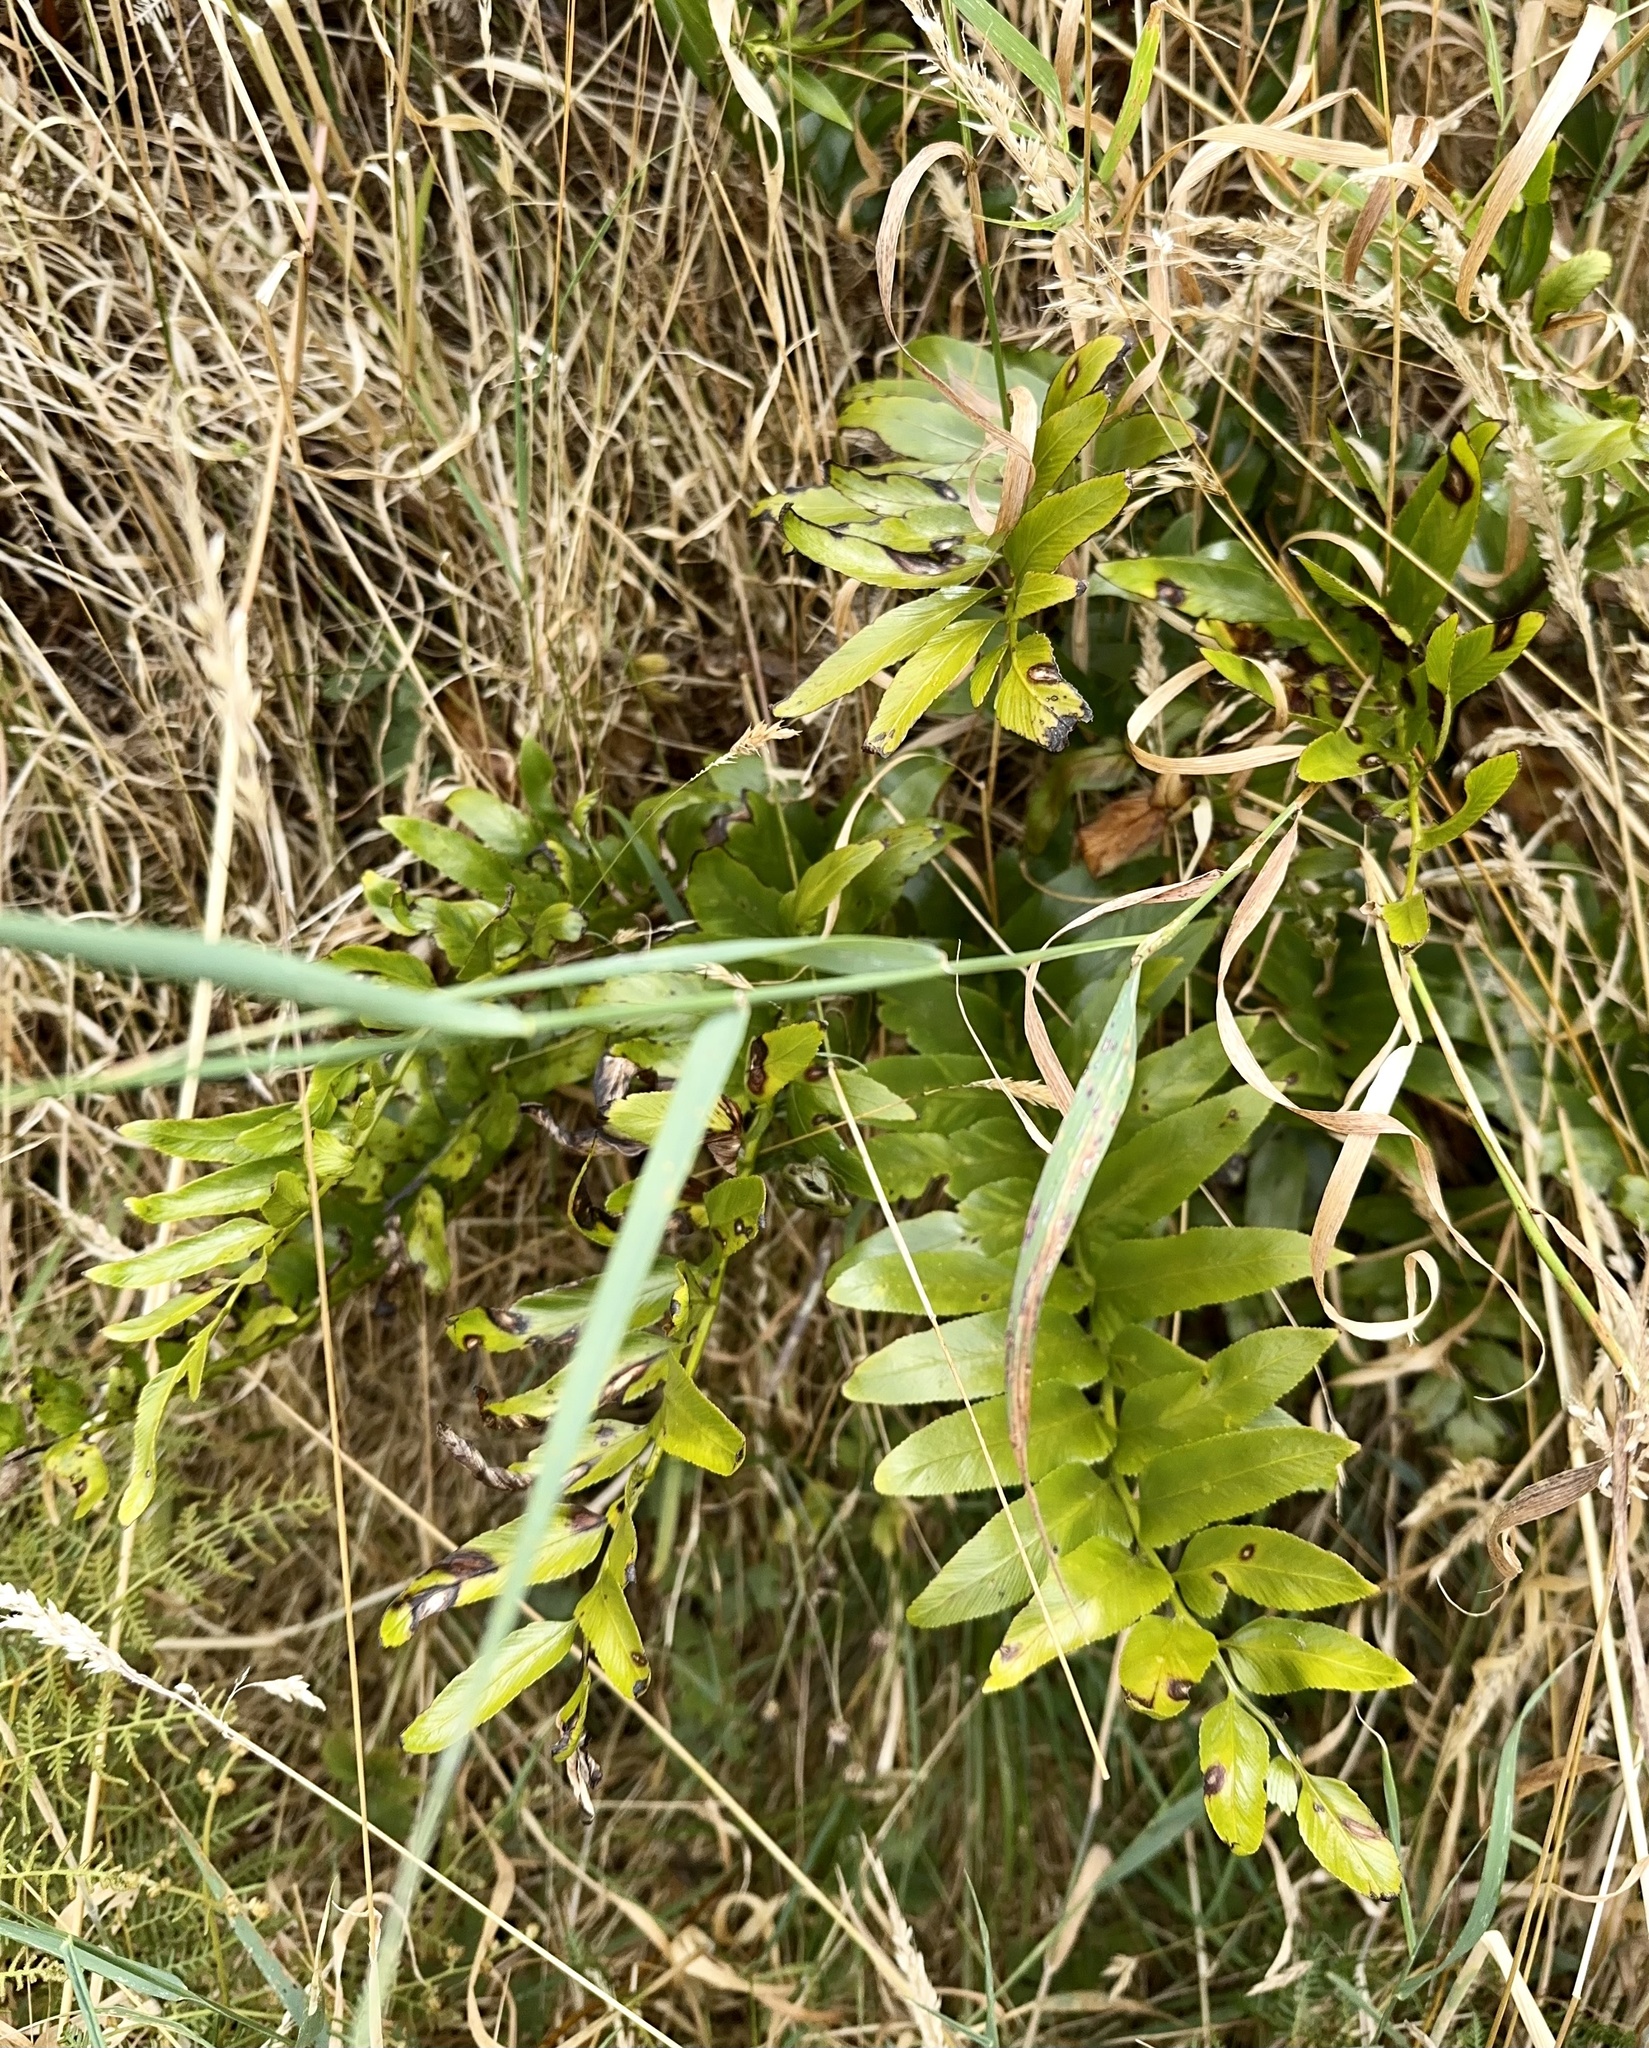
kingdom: Plantae
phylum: Tracheophyta
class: Polypodiopsida
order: Polypodiales
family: Aspleniaceae
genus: Asplenium
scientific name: Asplenium oblongifolium
